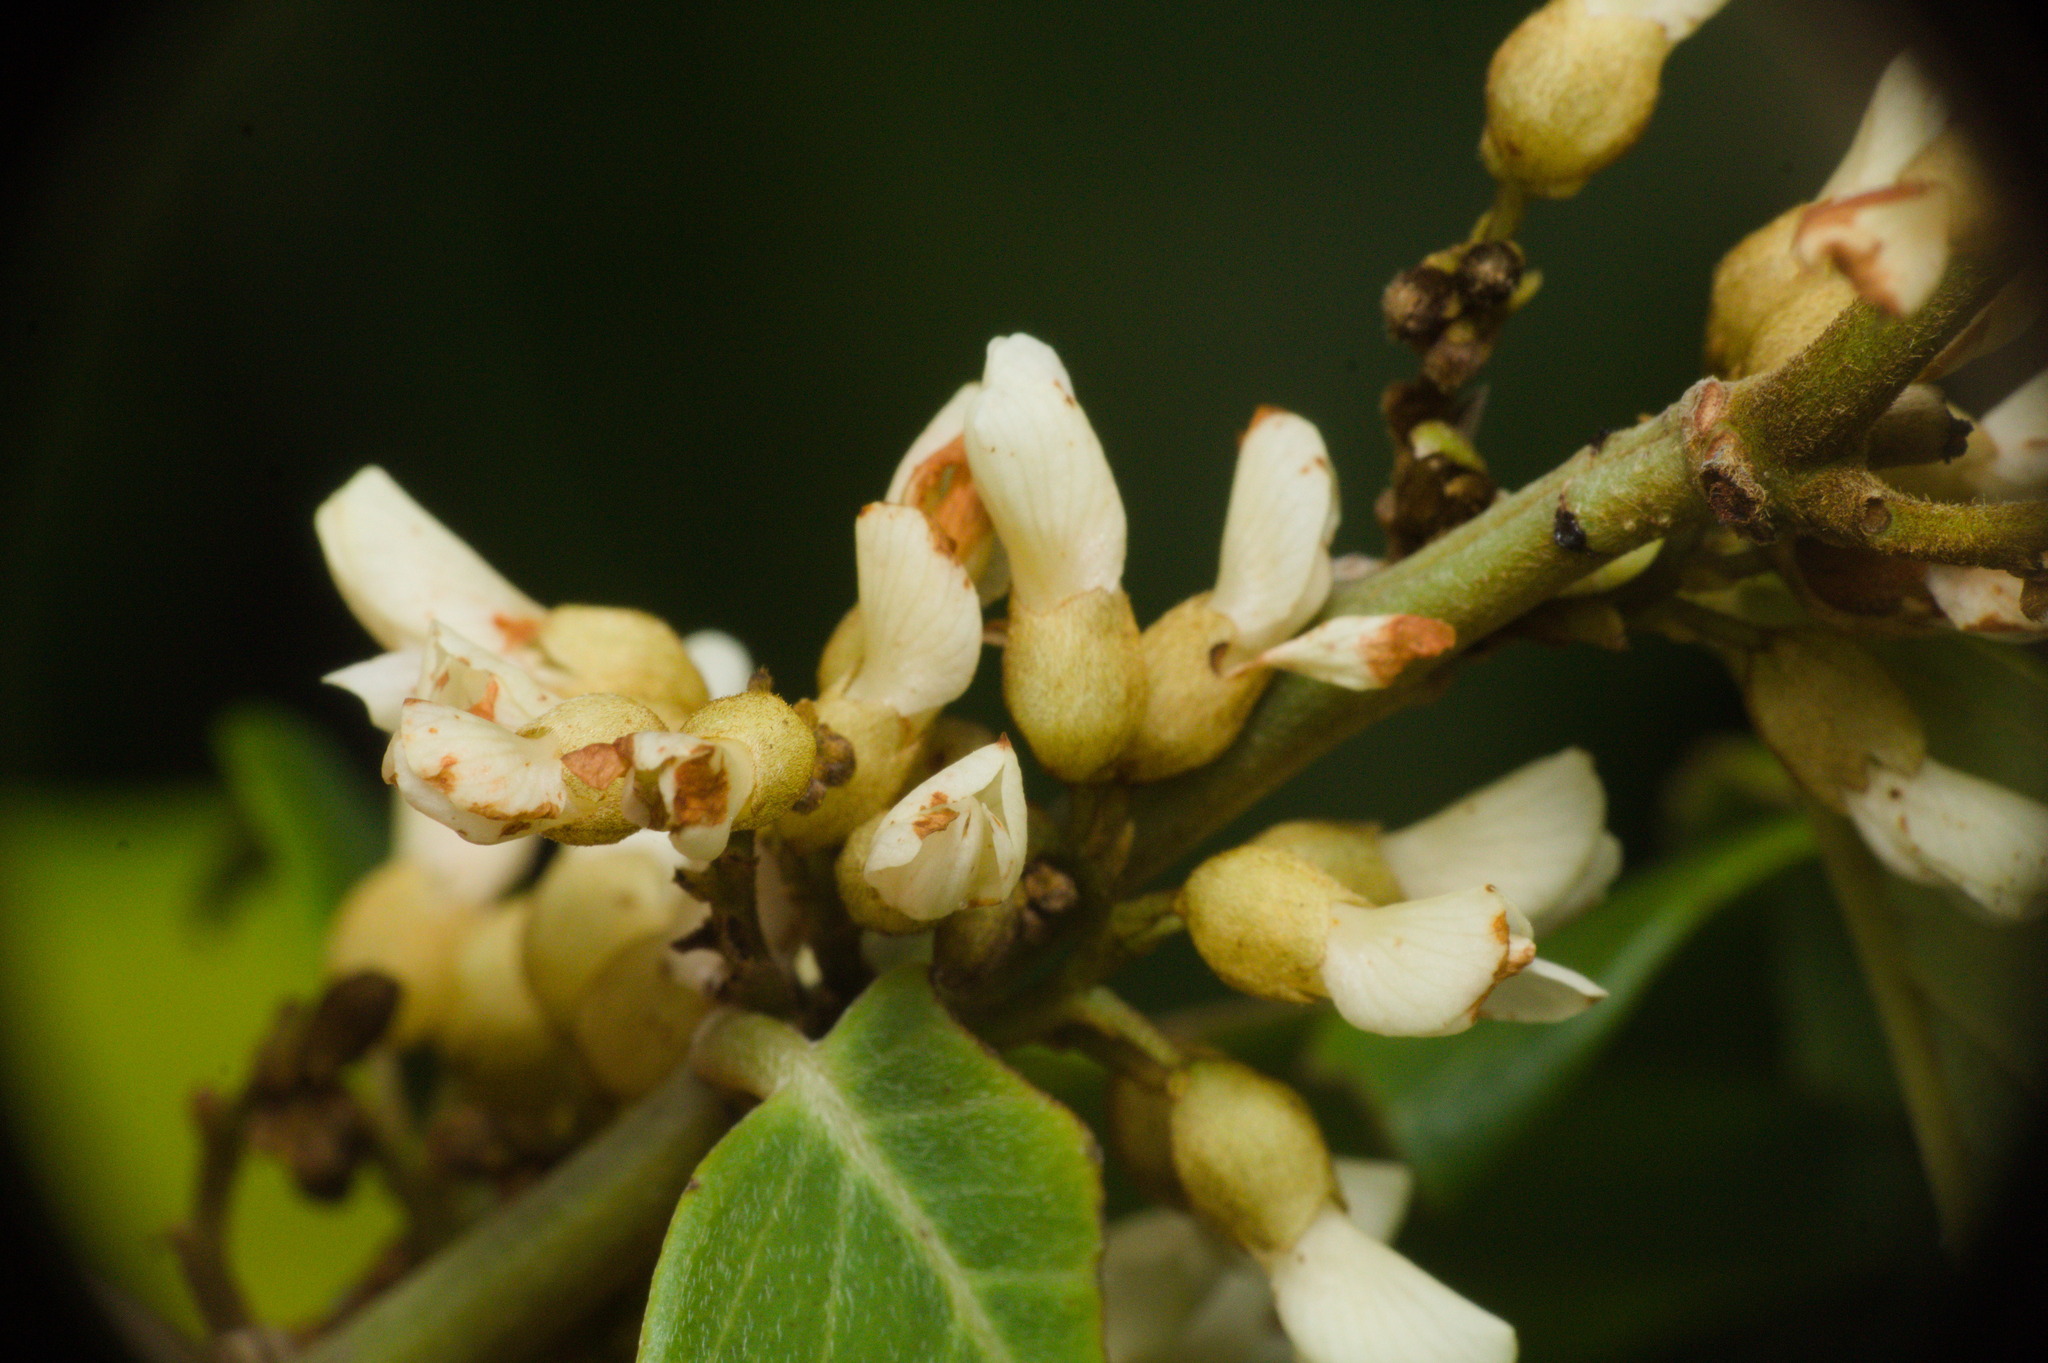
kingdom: Plantae
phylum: Tracheophyta
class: Magnoliopsida
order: Fabales
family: Fabaceae
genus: Dalbergia
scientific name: Dalbergia ecastaphyllum
